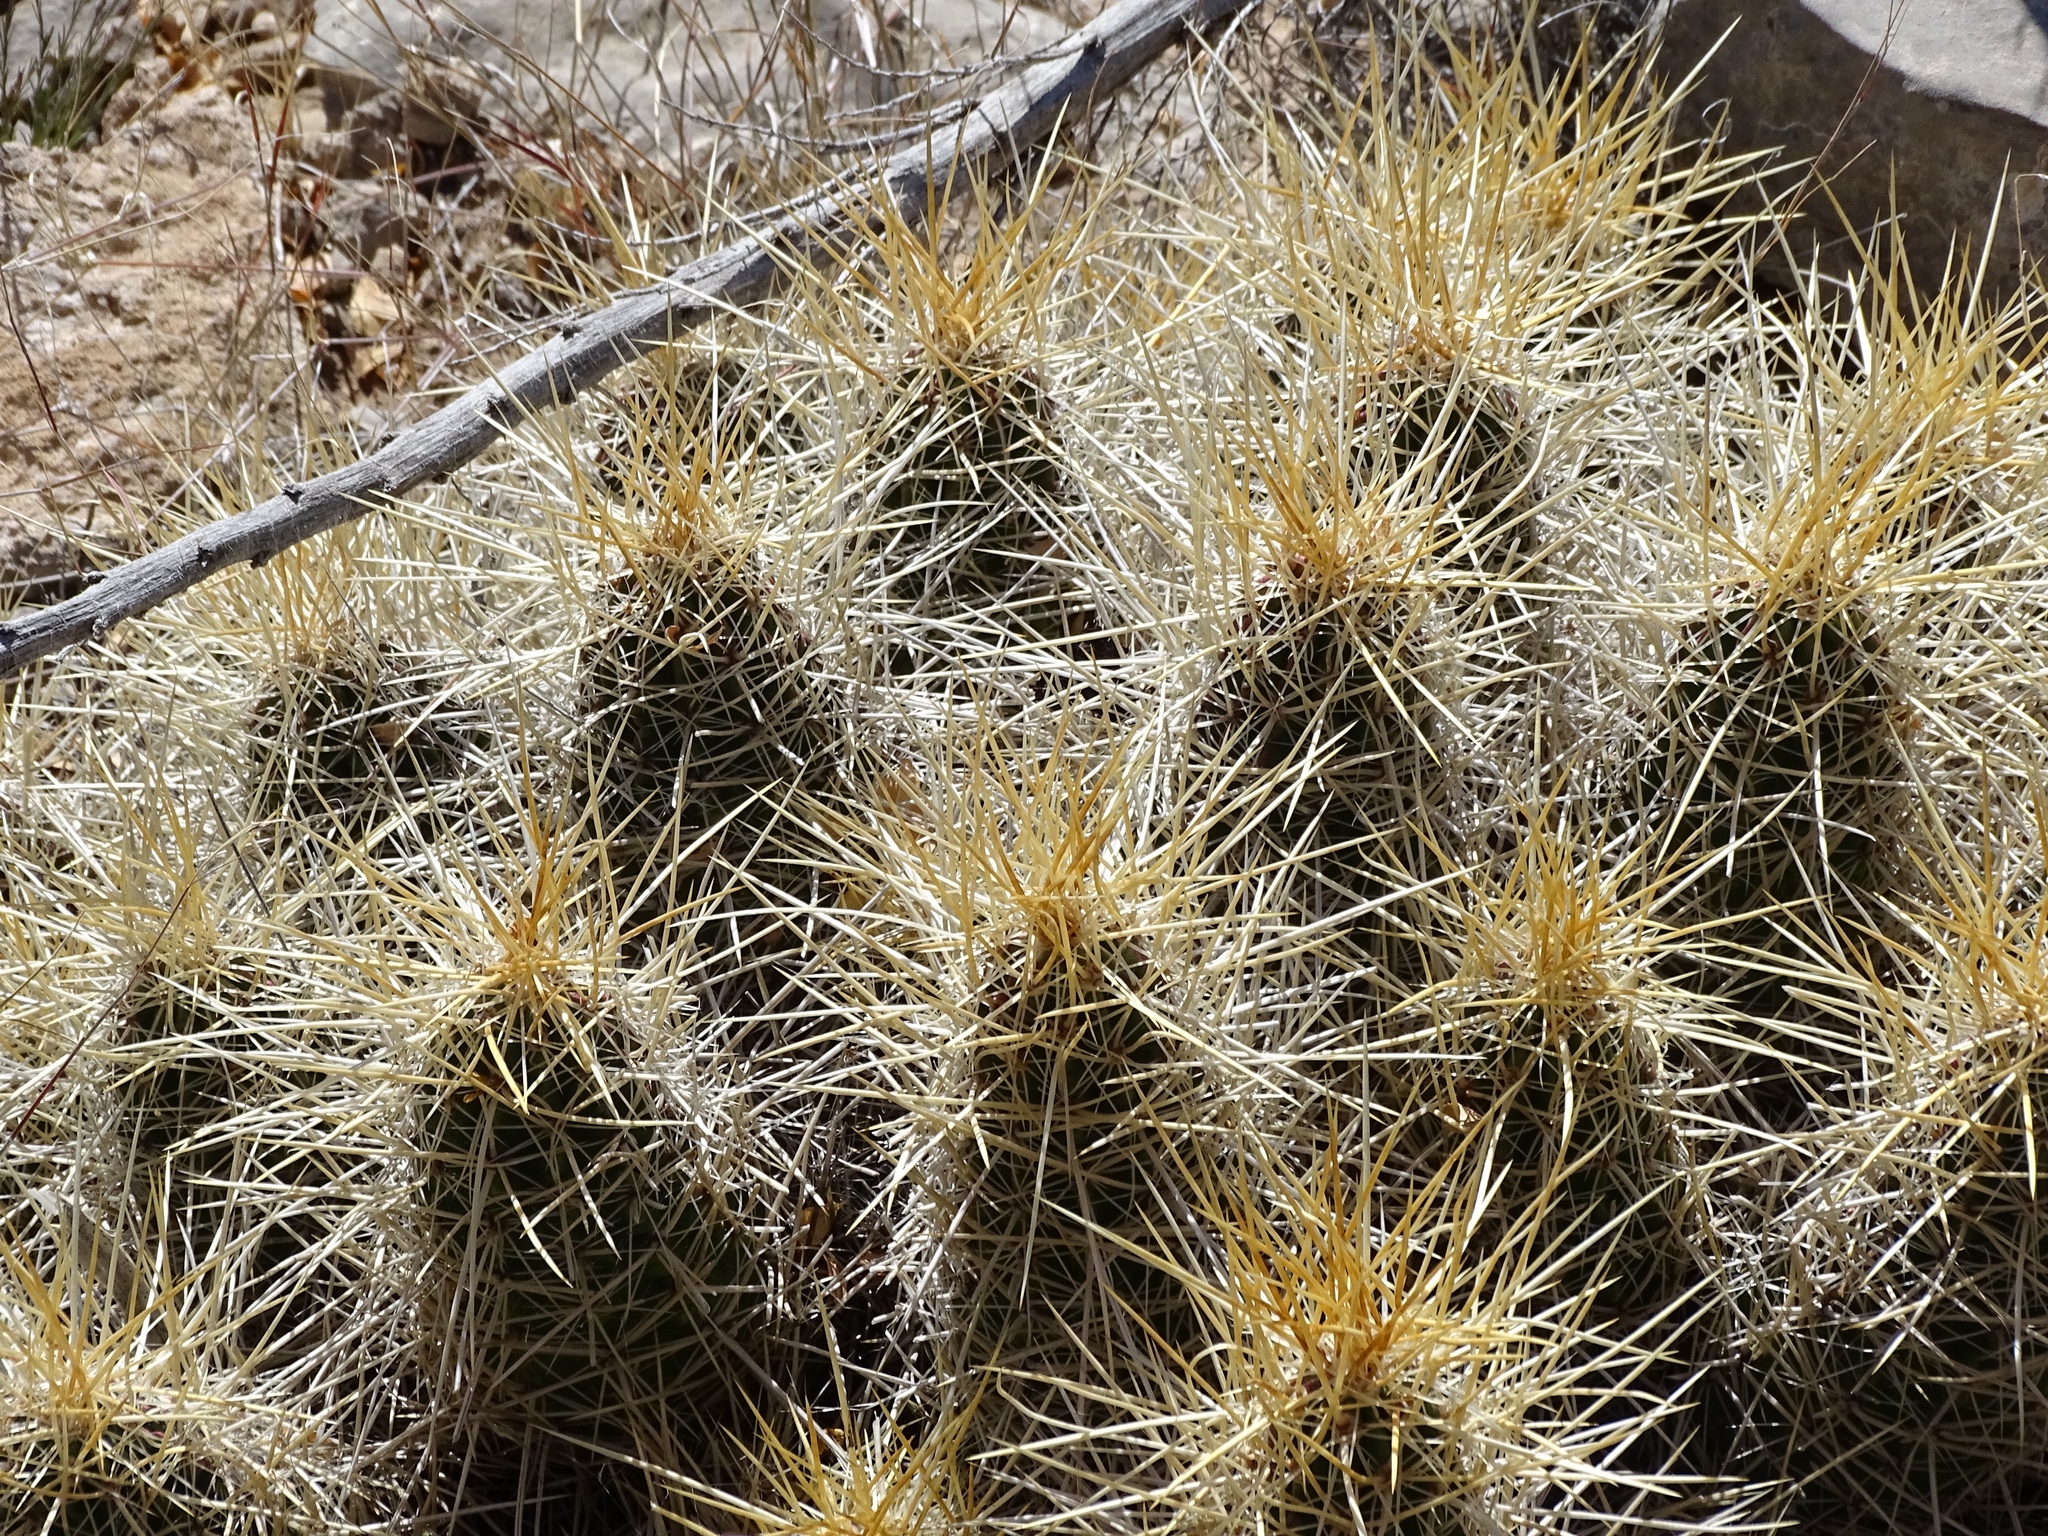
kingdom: Plantae
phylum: Tracheophyta
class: Magnoliopsida
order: Caryophyllales
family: Cactaceae
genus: Echinocereus
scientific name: Echinocereus stramineus
